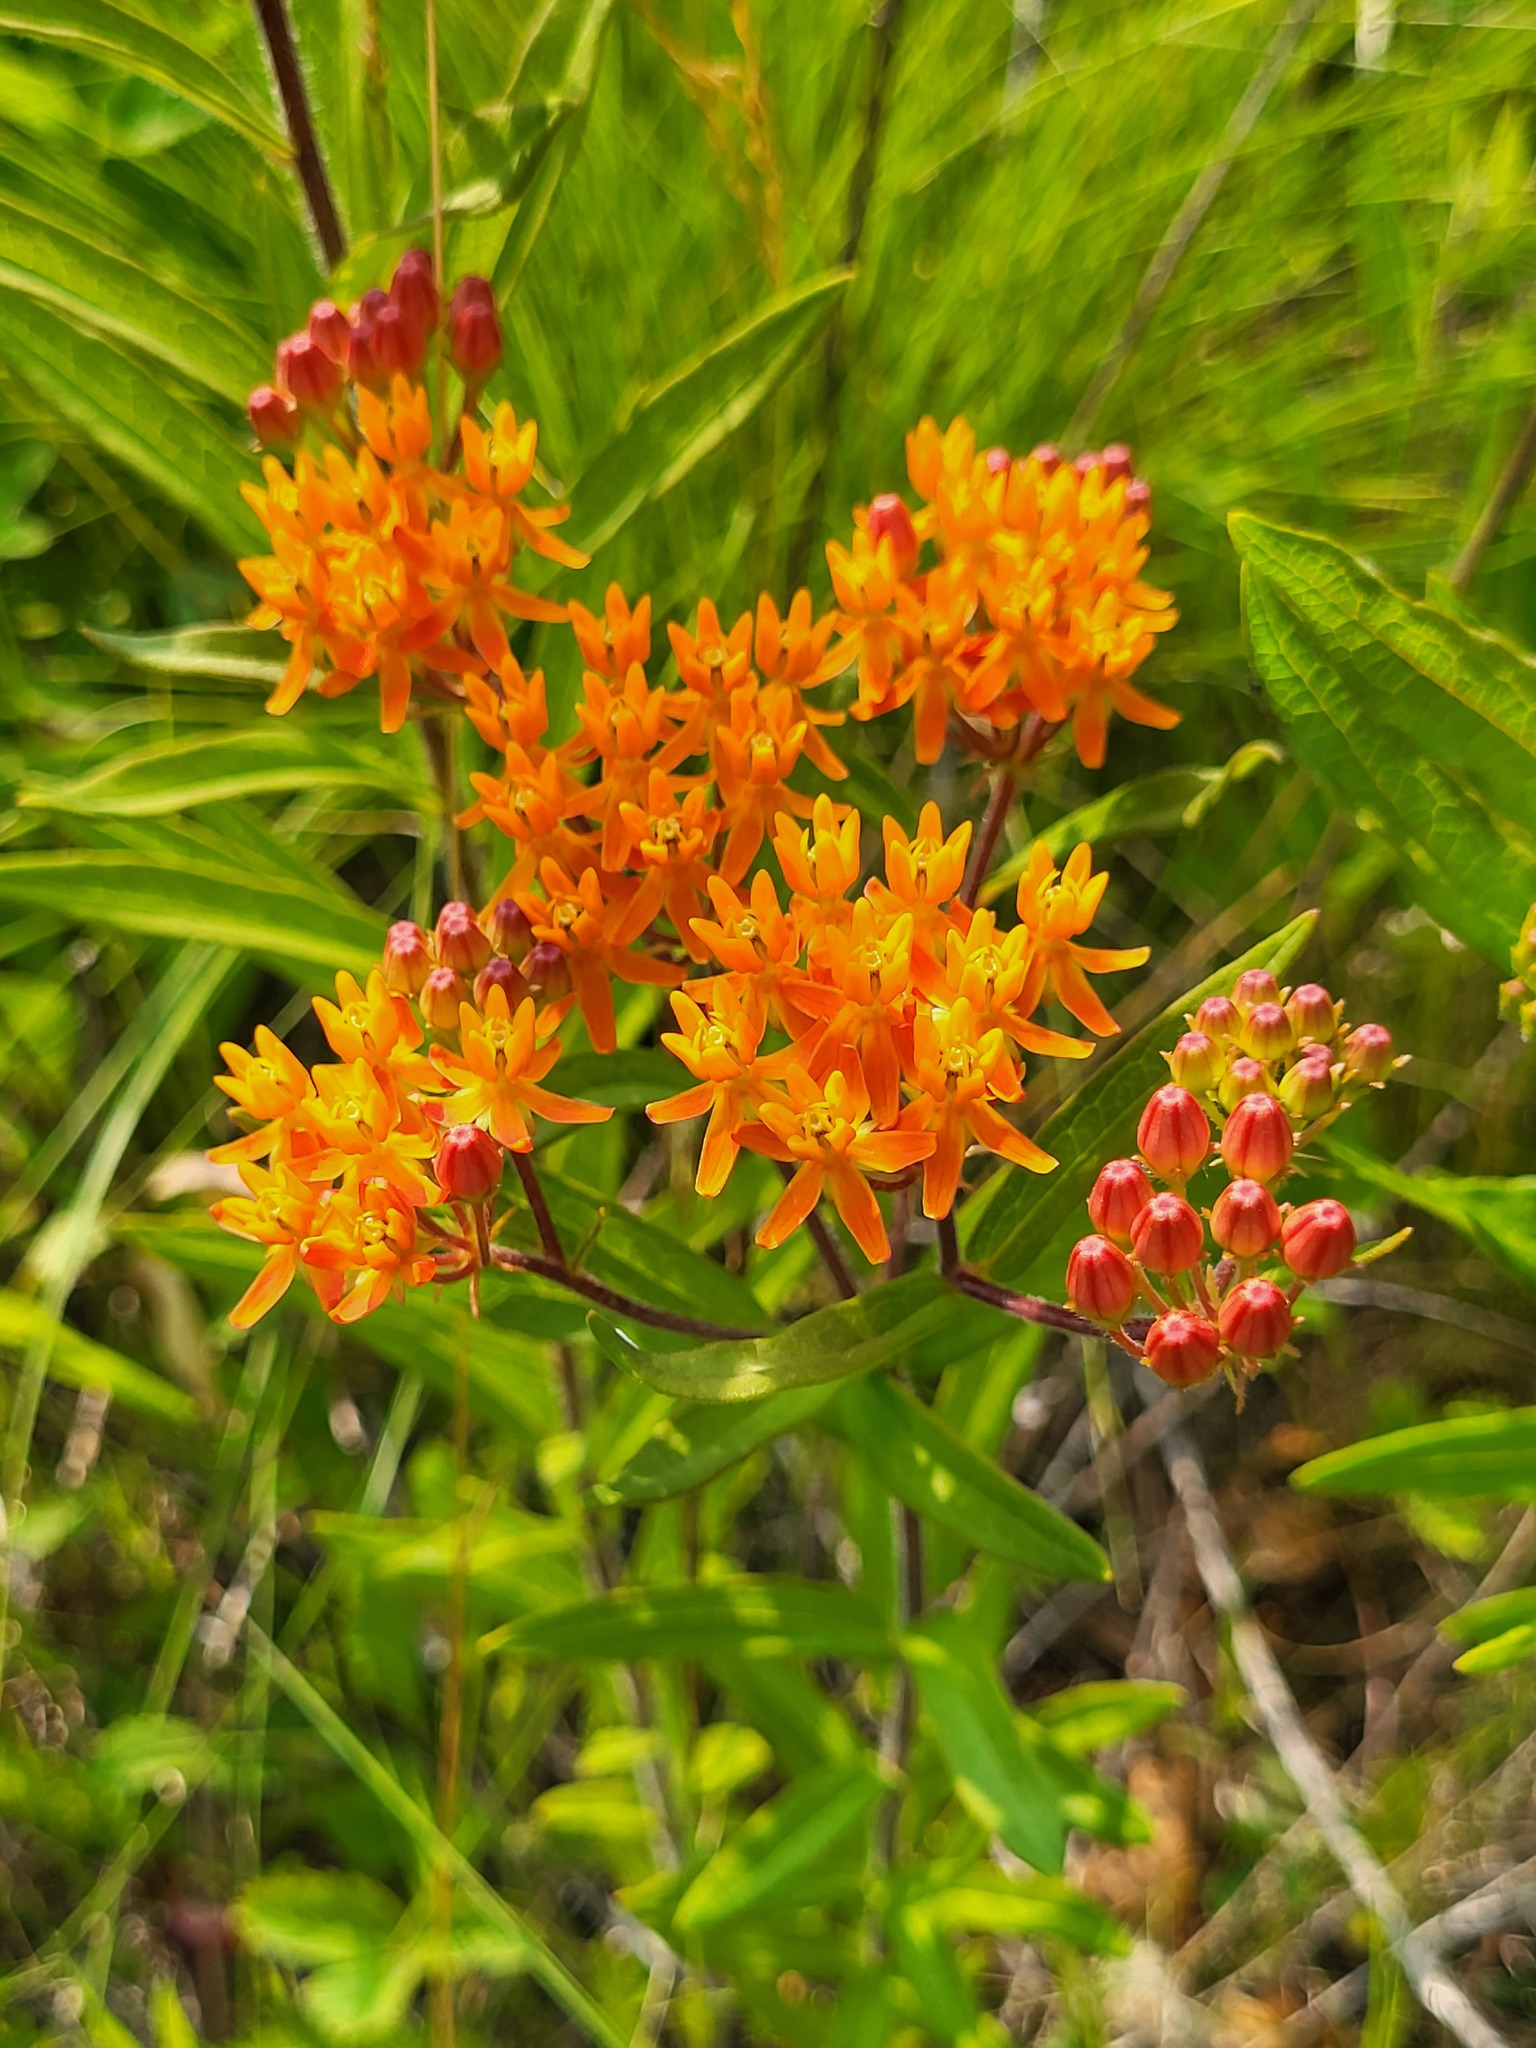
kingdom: Plantae
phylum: Tracheophyta
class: Magnoliopsida
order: Gentianales
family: Apocynaceae
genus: Asclepias
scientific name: Asclepias tuberosa
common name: Butterfly milkweed
